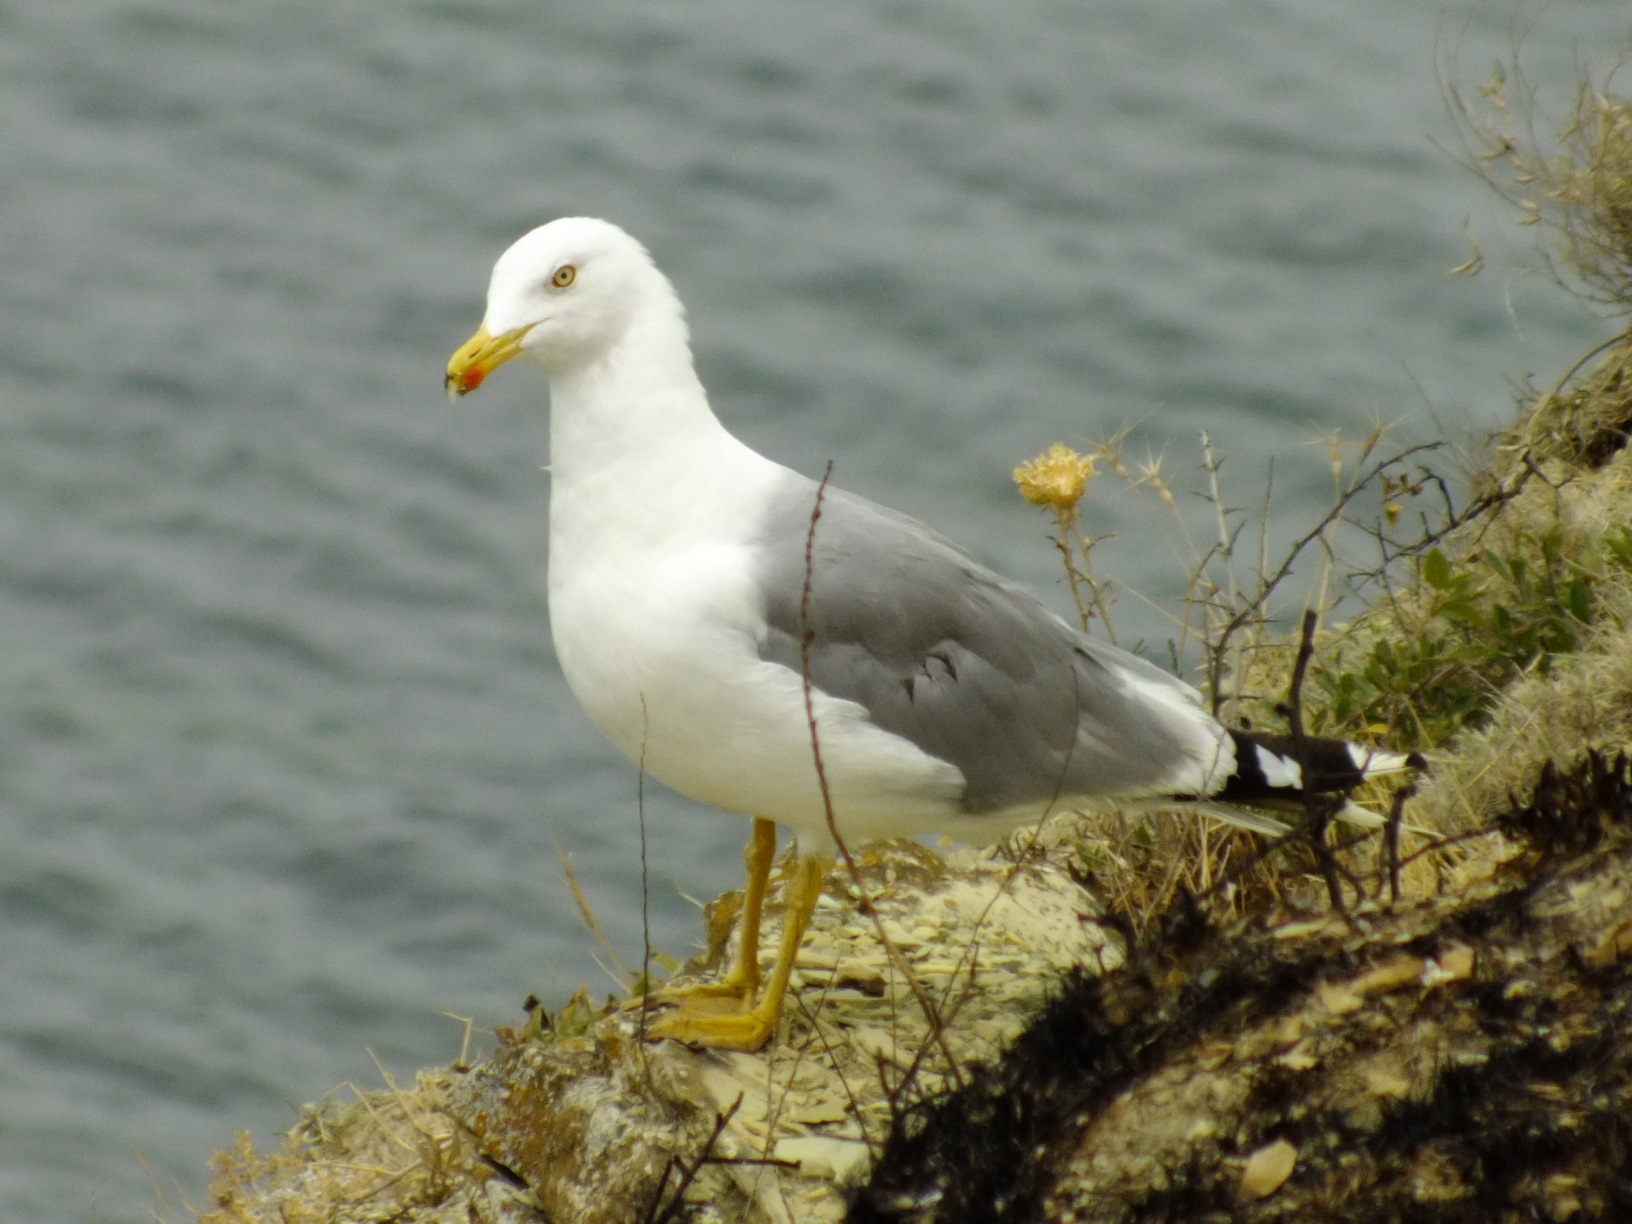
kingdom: Animalia
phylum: Chordata
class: Aves
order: Charadriiformes
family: Laridae
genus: Larus
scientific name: Larus michahellis
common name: Yellow-legged gull
